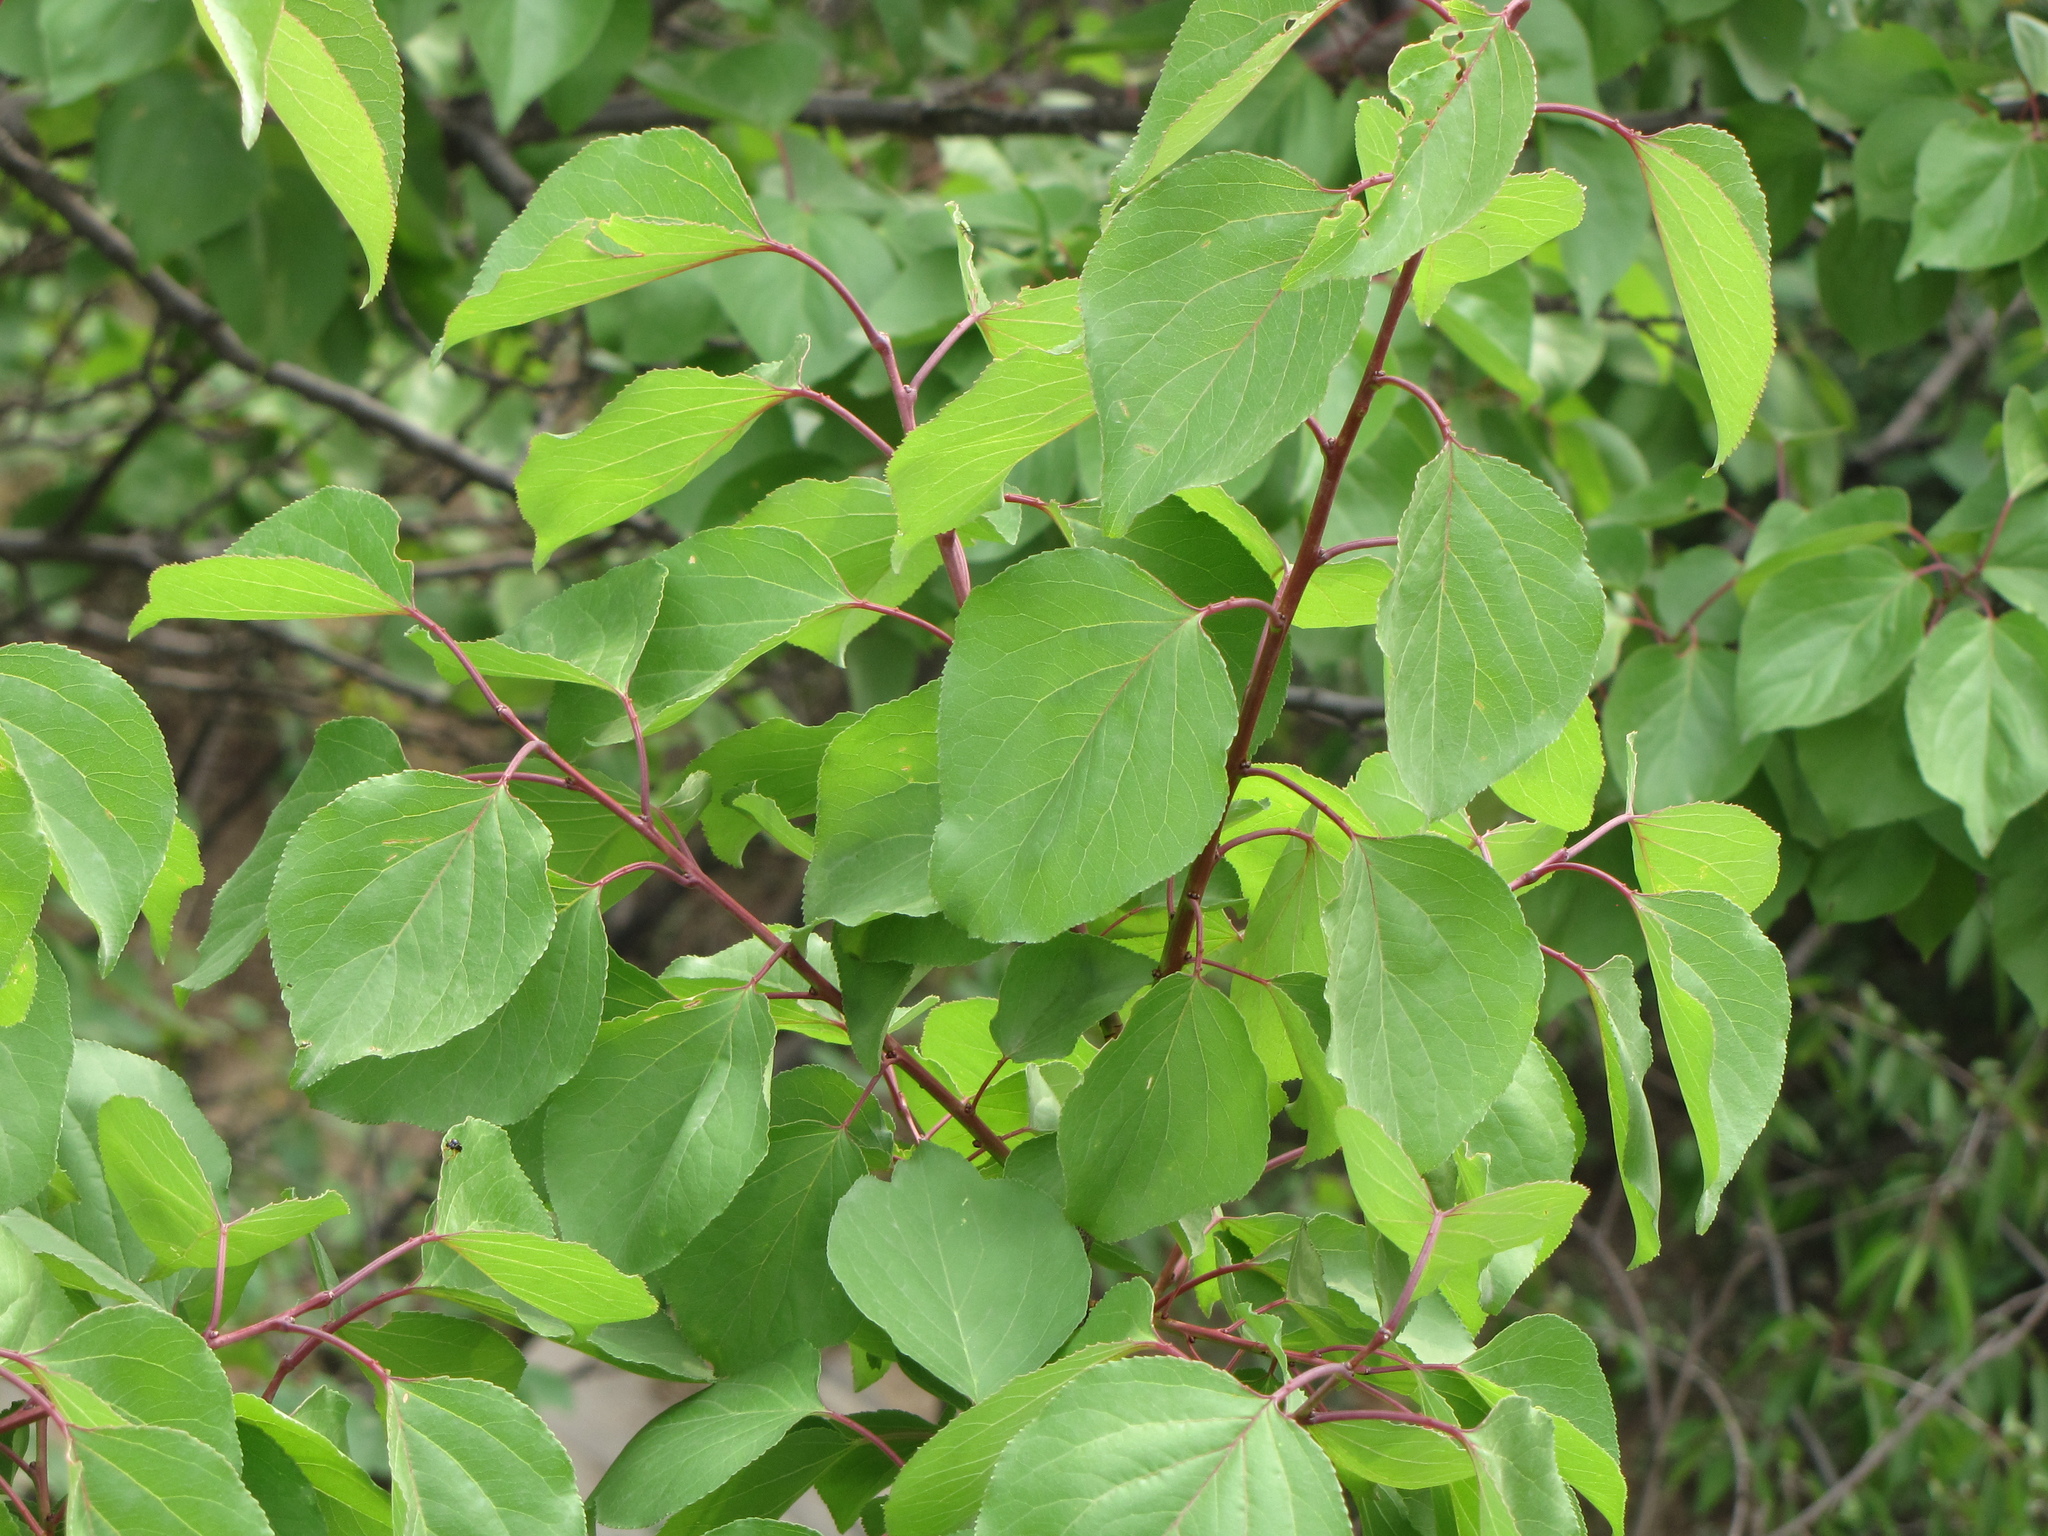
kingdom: Plantae
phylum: Tracheophyta
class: Magnoliopsida
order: Rosales
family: Rosaceae
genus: Prunus
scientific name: Prunus sibirica
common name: Siberian apricot
